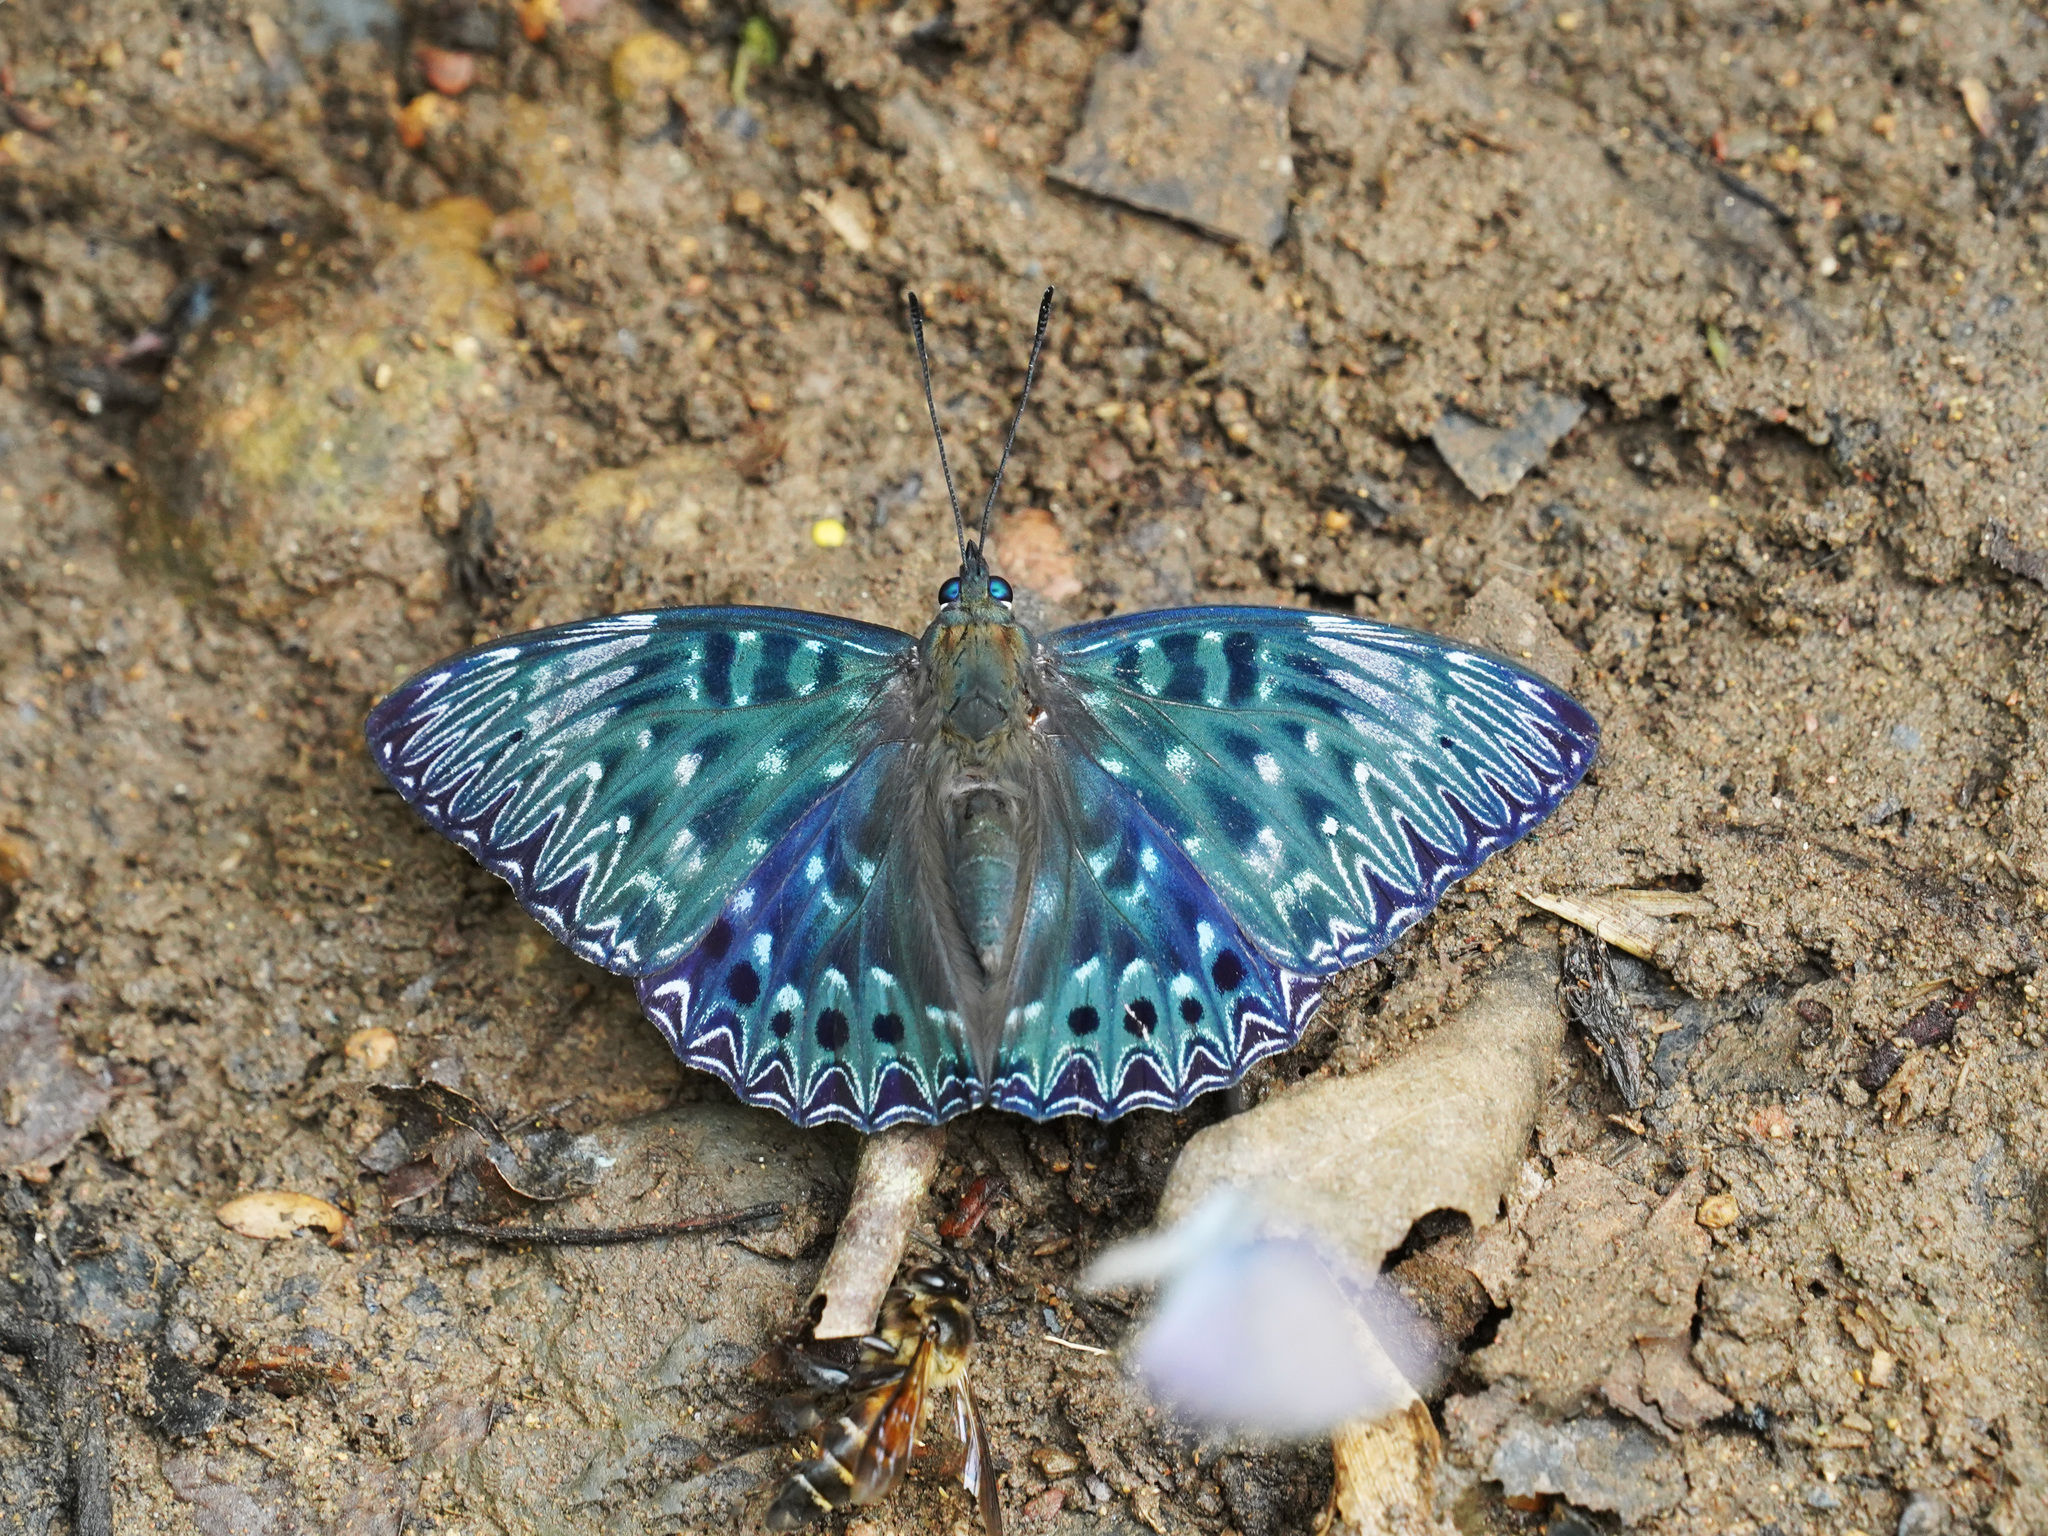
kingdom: Animalia
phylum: Arthropoda
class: Insecta
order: Lepidoptera
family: Nymphalidae
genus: Dichorragia
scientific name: Dichorragia nesimachus
